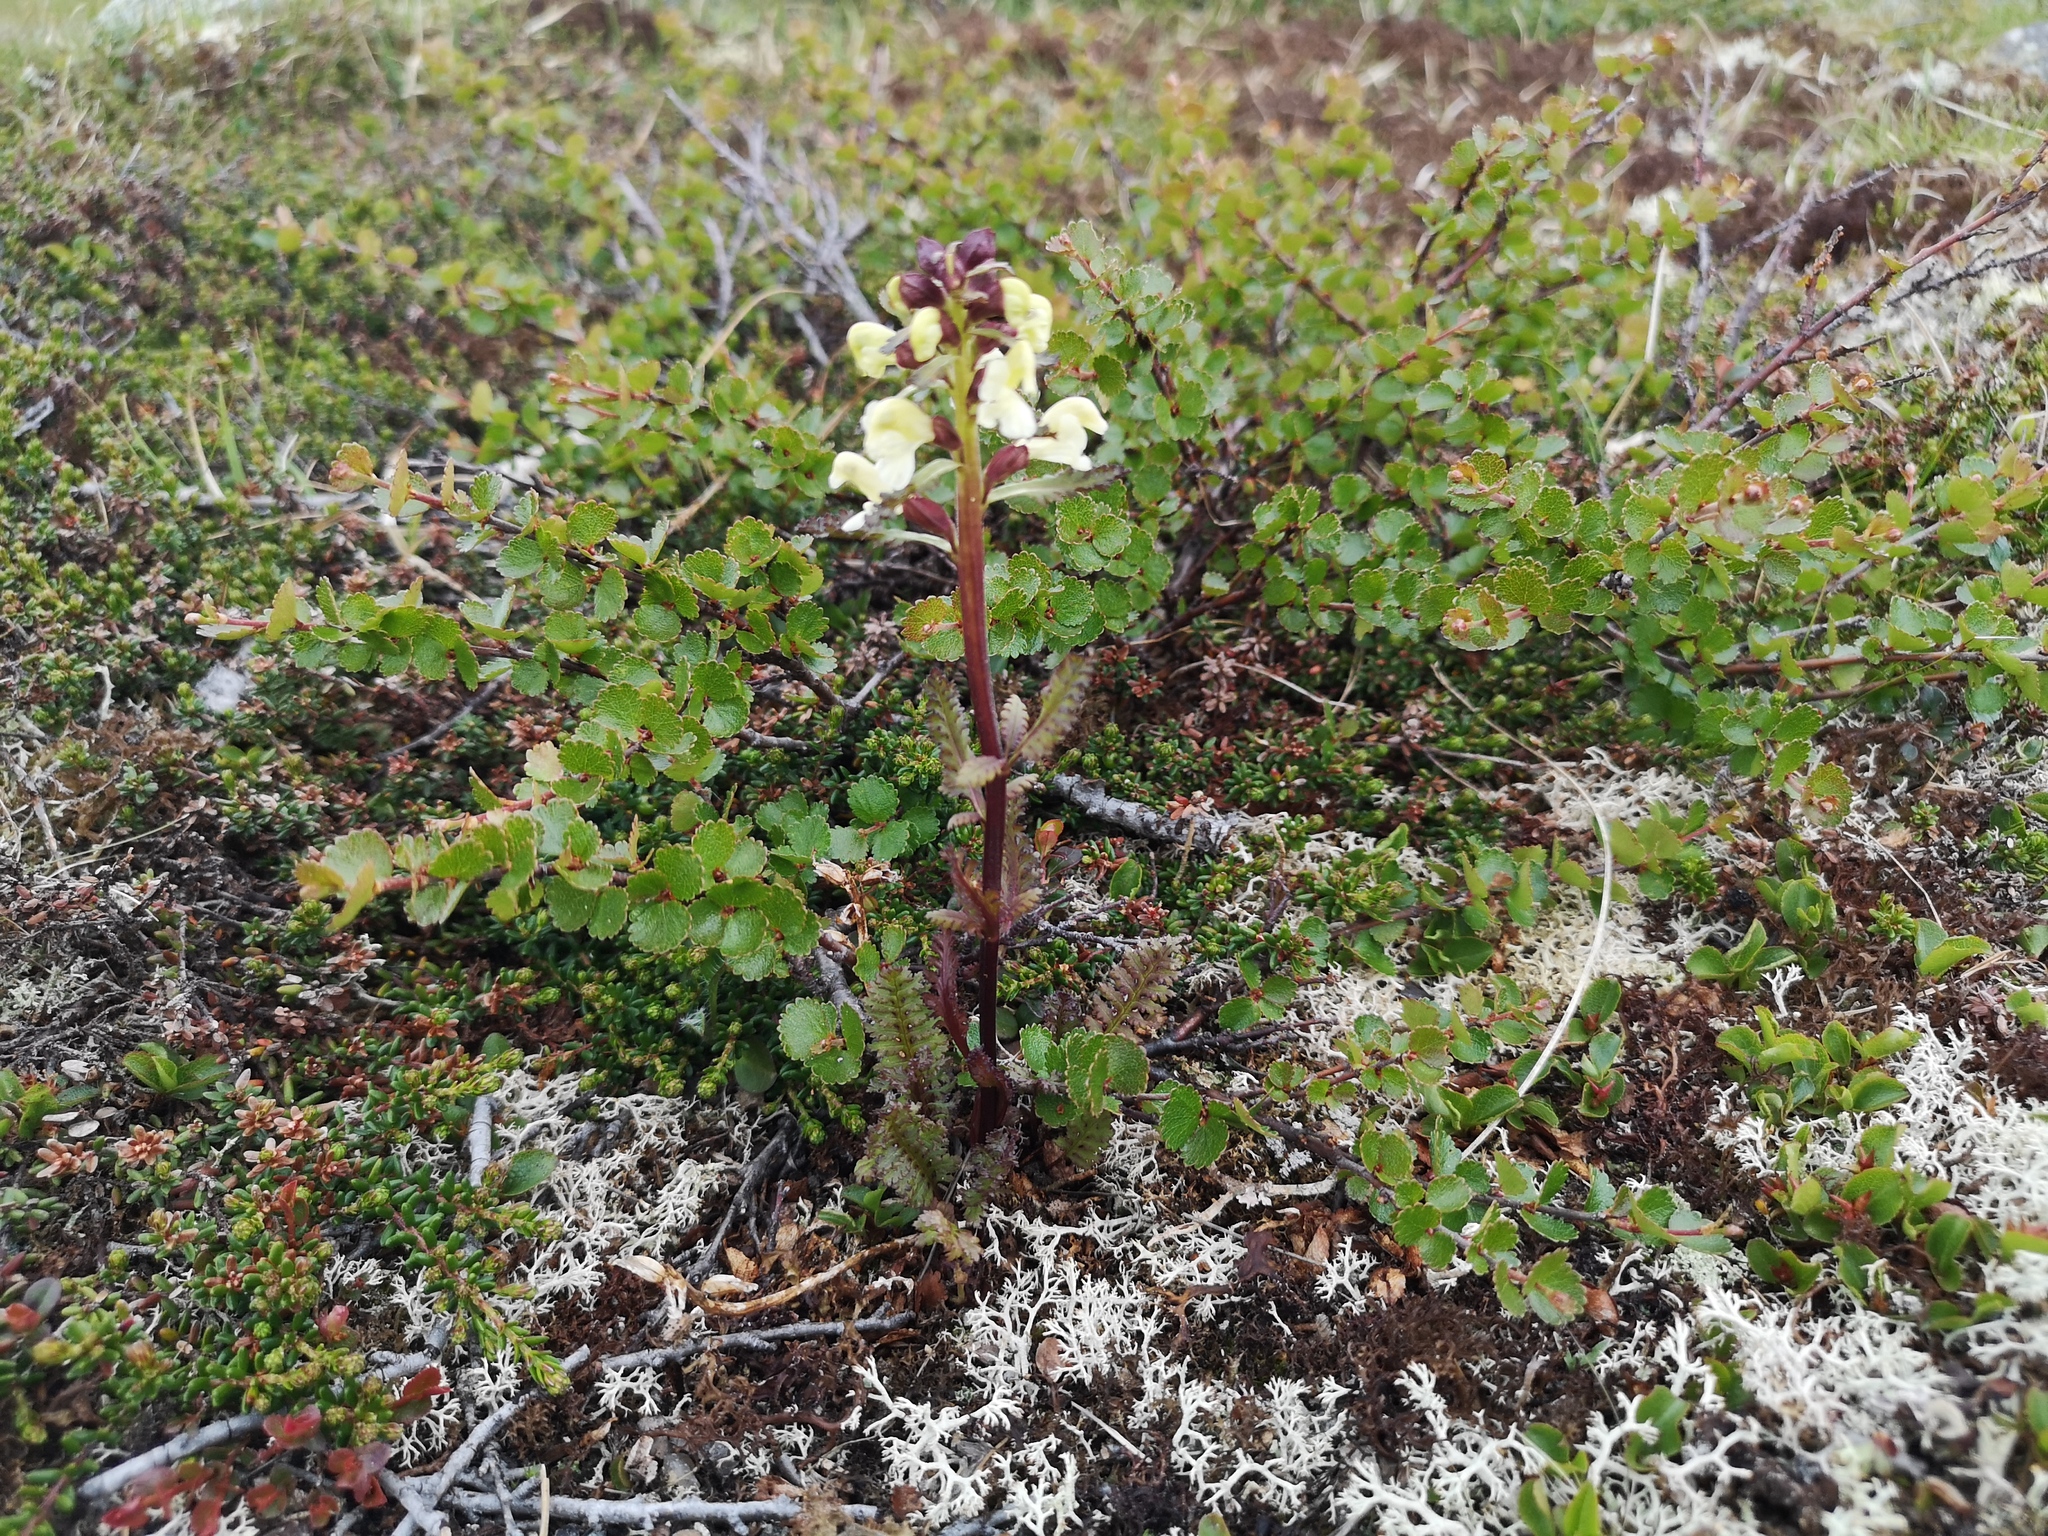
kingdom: Plantae
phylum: Tracheophyta
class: Magnoliopsida
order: Lamiales
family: Orobanchaceae
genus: Pedicularis
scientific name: Pedicularis lapponica
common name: Lapland lousewort
